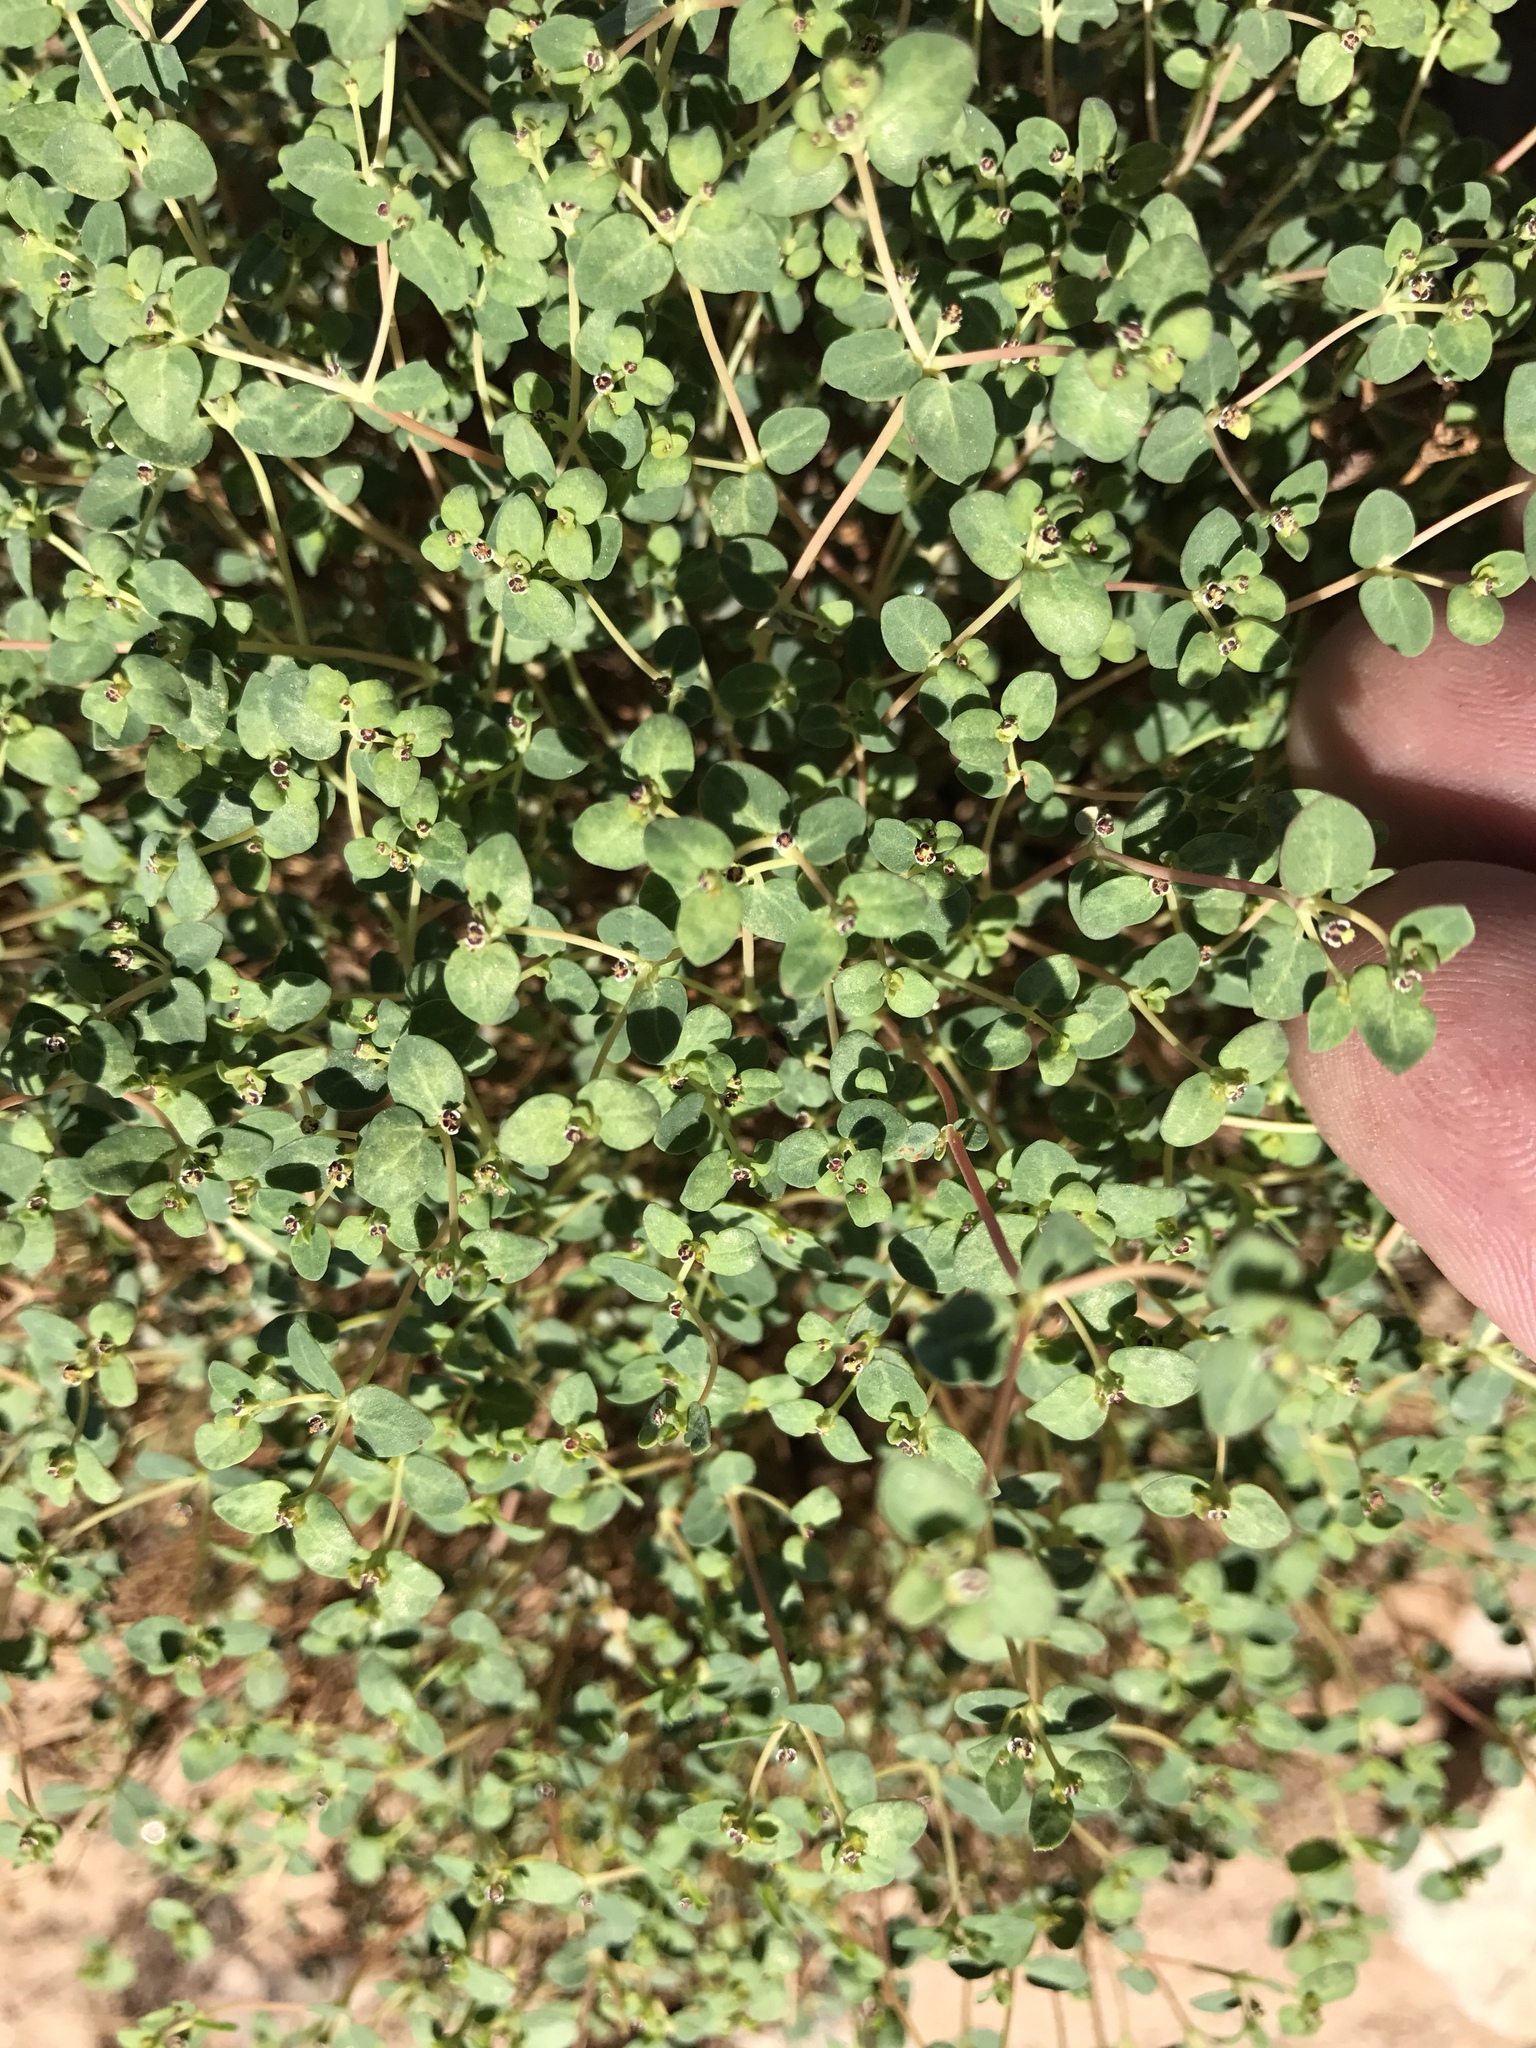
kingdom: Plantae
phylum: Tracheophyta
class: Magnoliopsida
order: Malpighiales
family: Euphorbiaceae
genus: Euphorbia
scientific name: Euphorbia polycarpa
